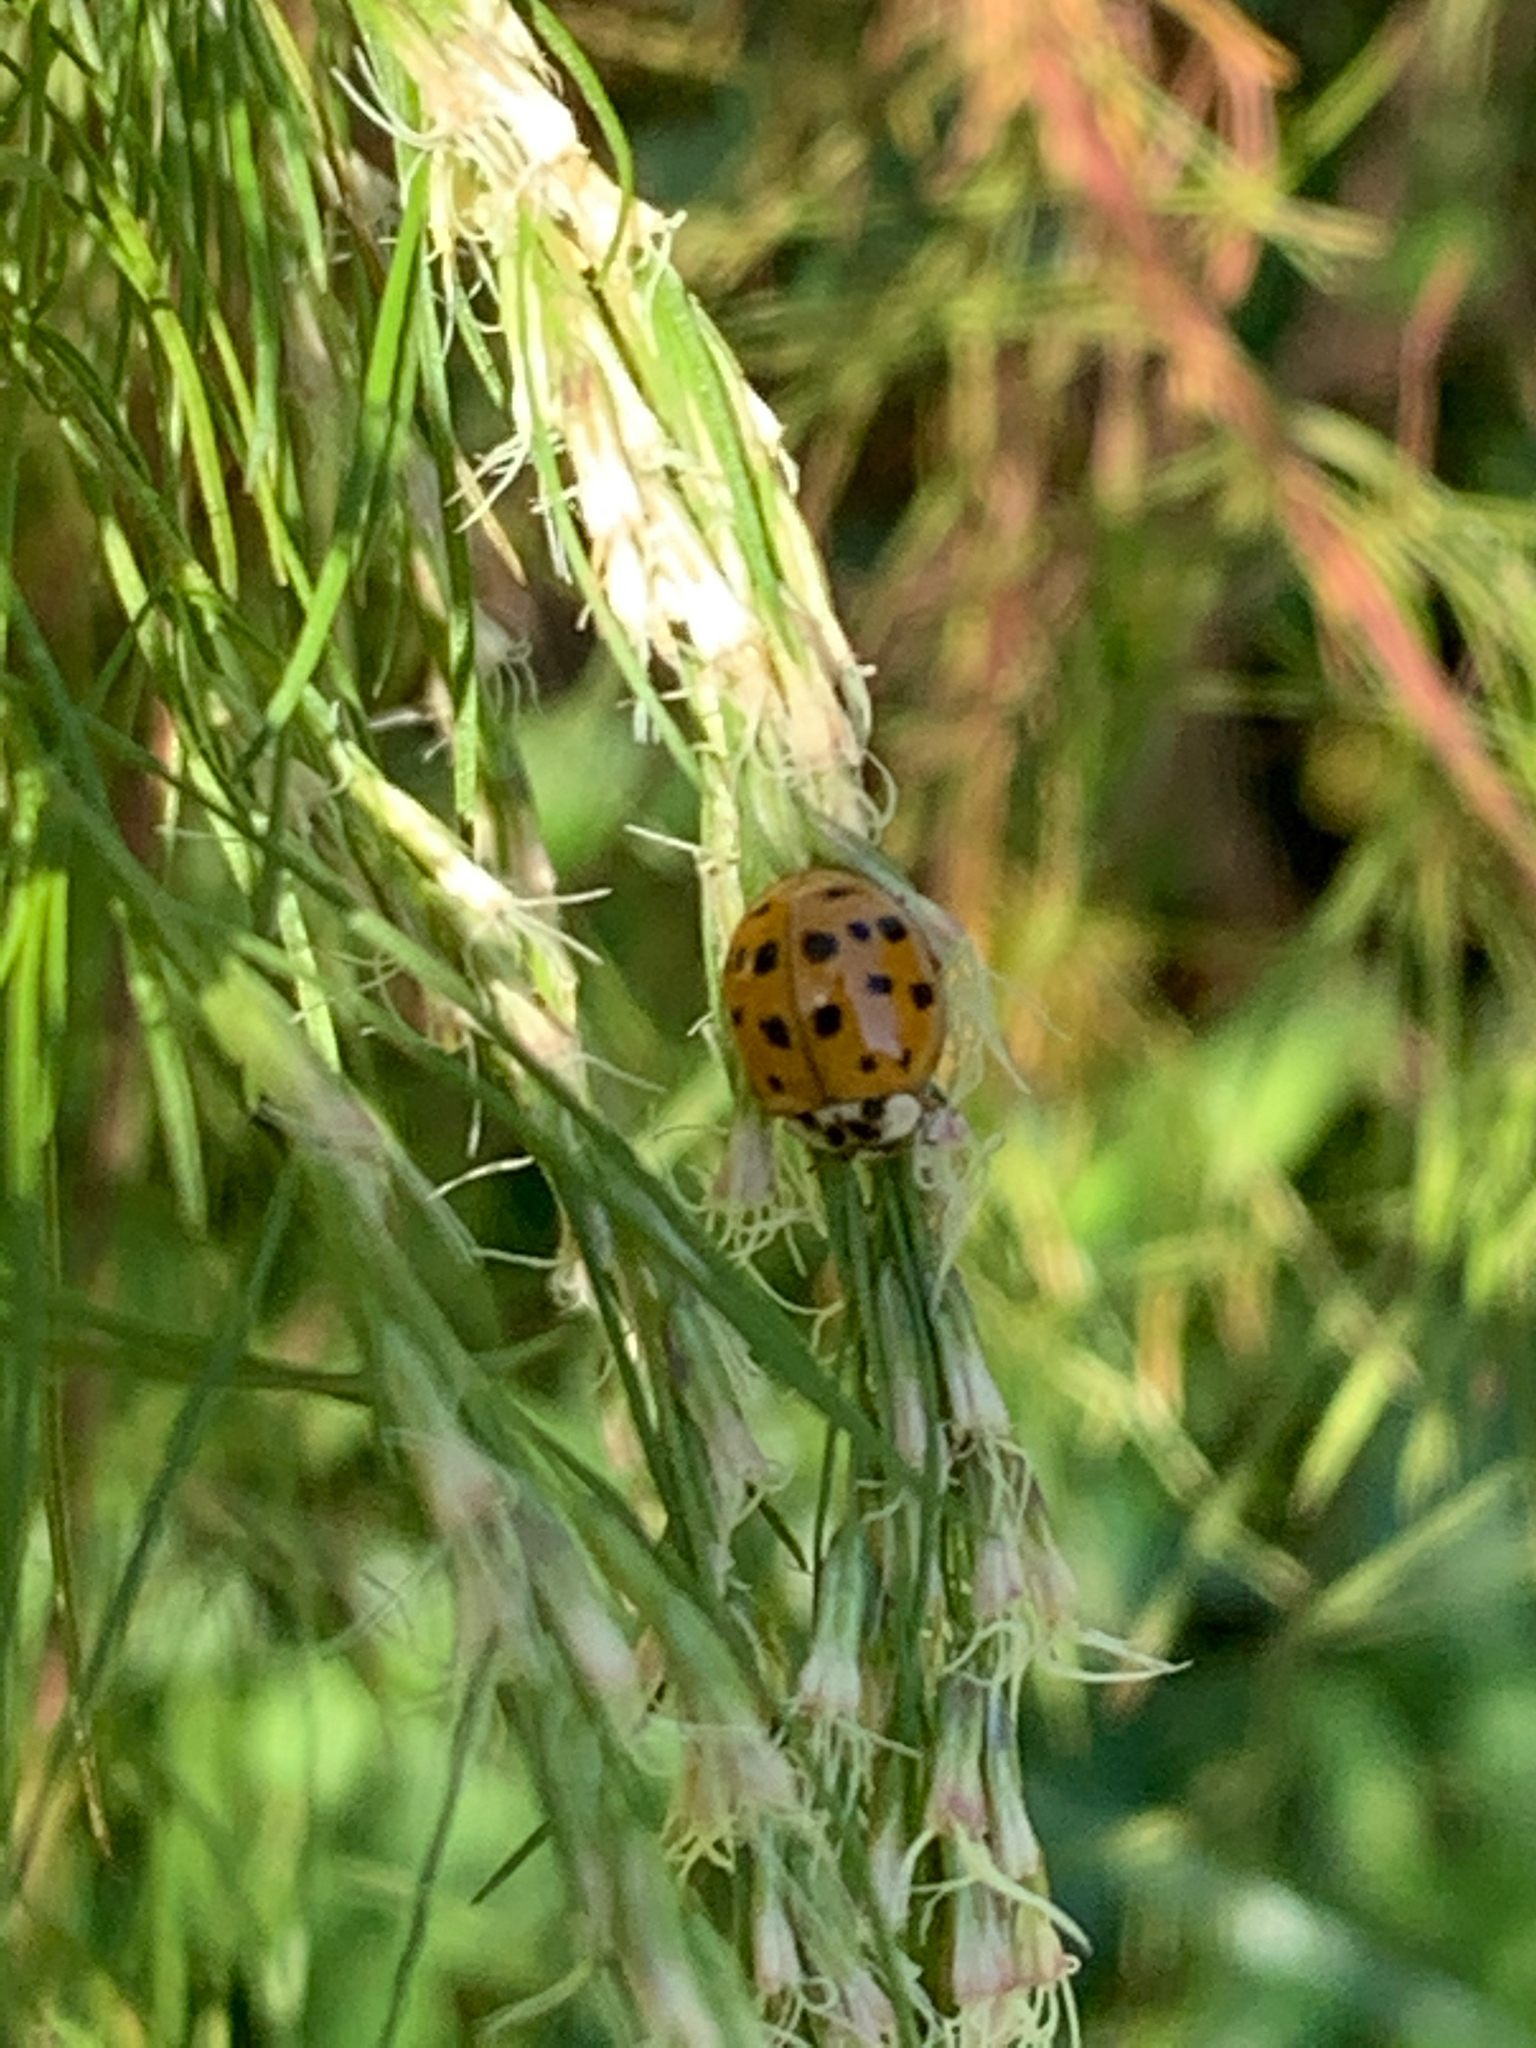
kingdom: Animalia
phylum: Arthropoda
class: Insecta
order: Coleoptera
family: Coccinellidae
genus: Harmonia
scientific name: Harmonia axyridis
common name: Harlequin ladybird
